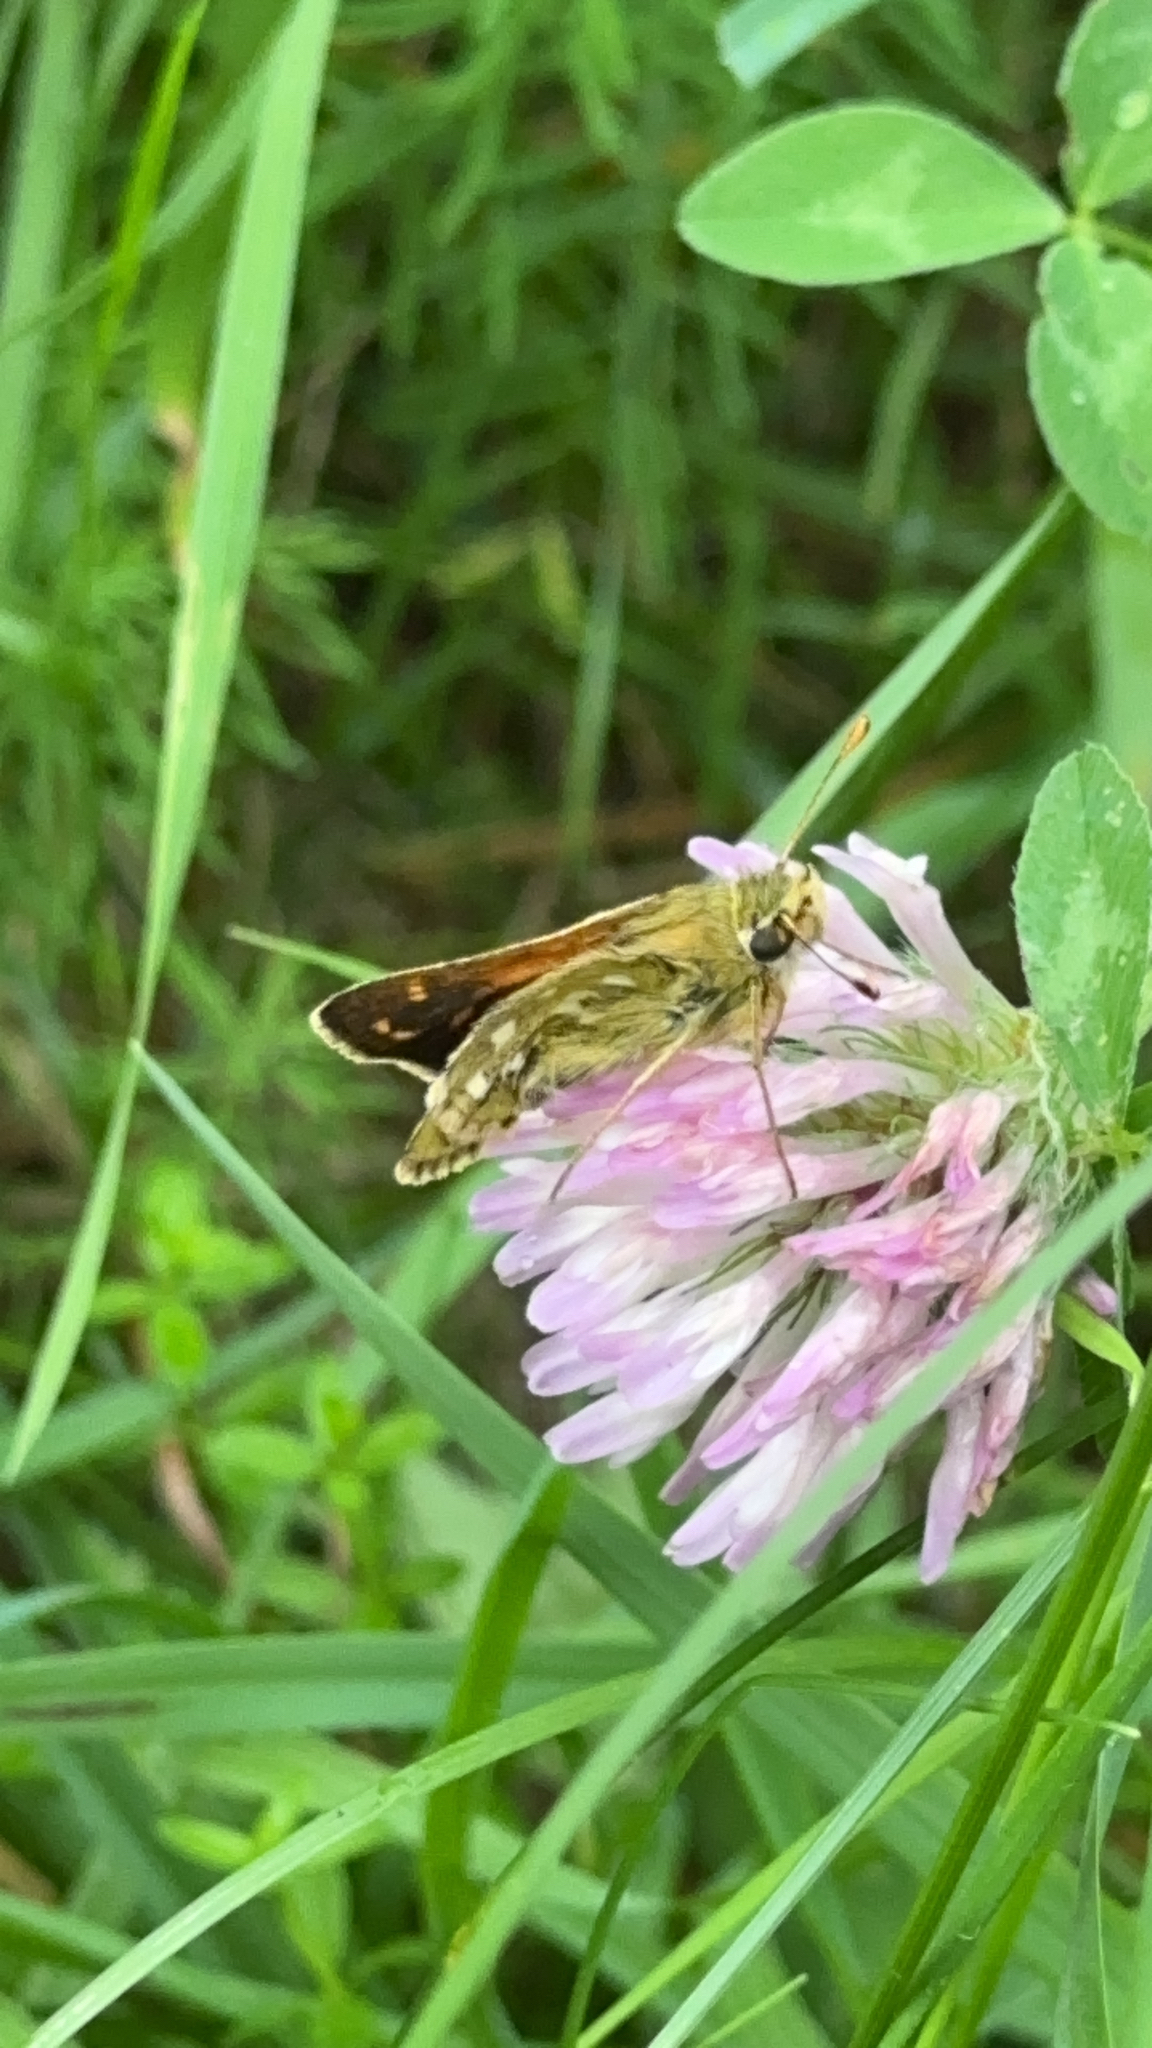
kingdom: Animalia
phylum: Arthropoda
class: Insecta
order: Lepidoptera
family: Hesperiidae
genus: Hesperia
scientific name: Hesperia comma
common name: Common branded skipper
